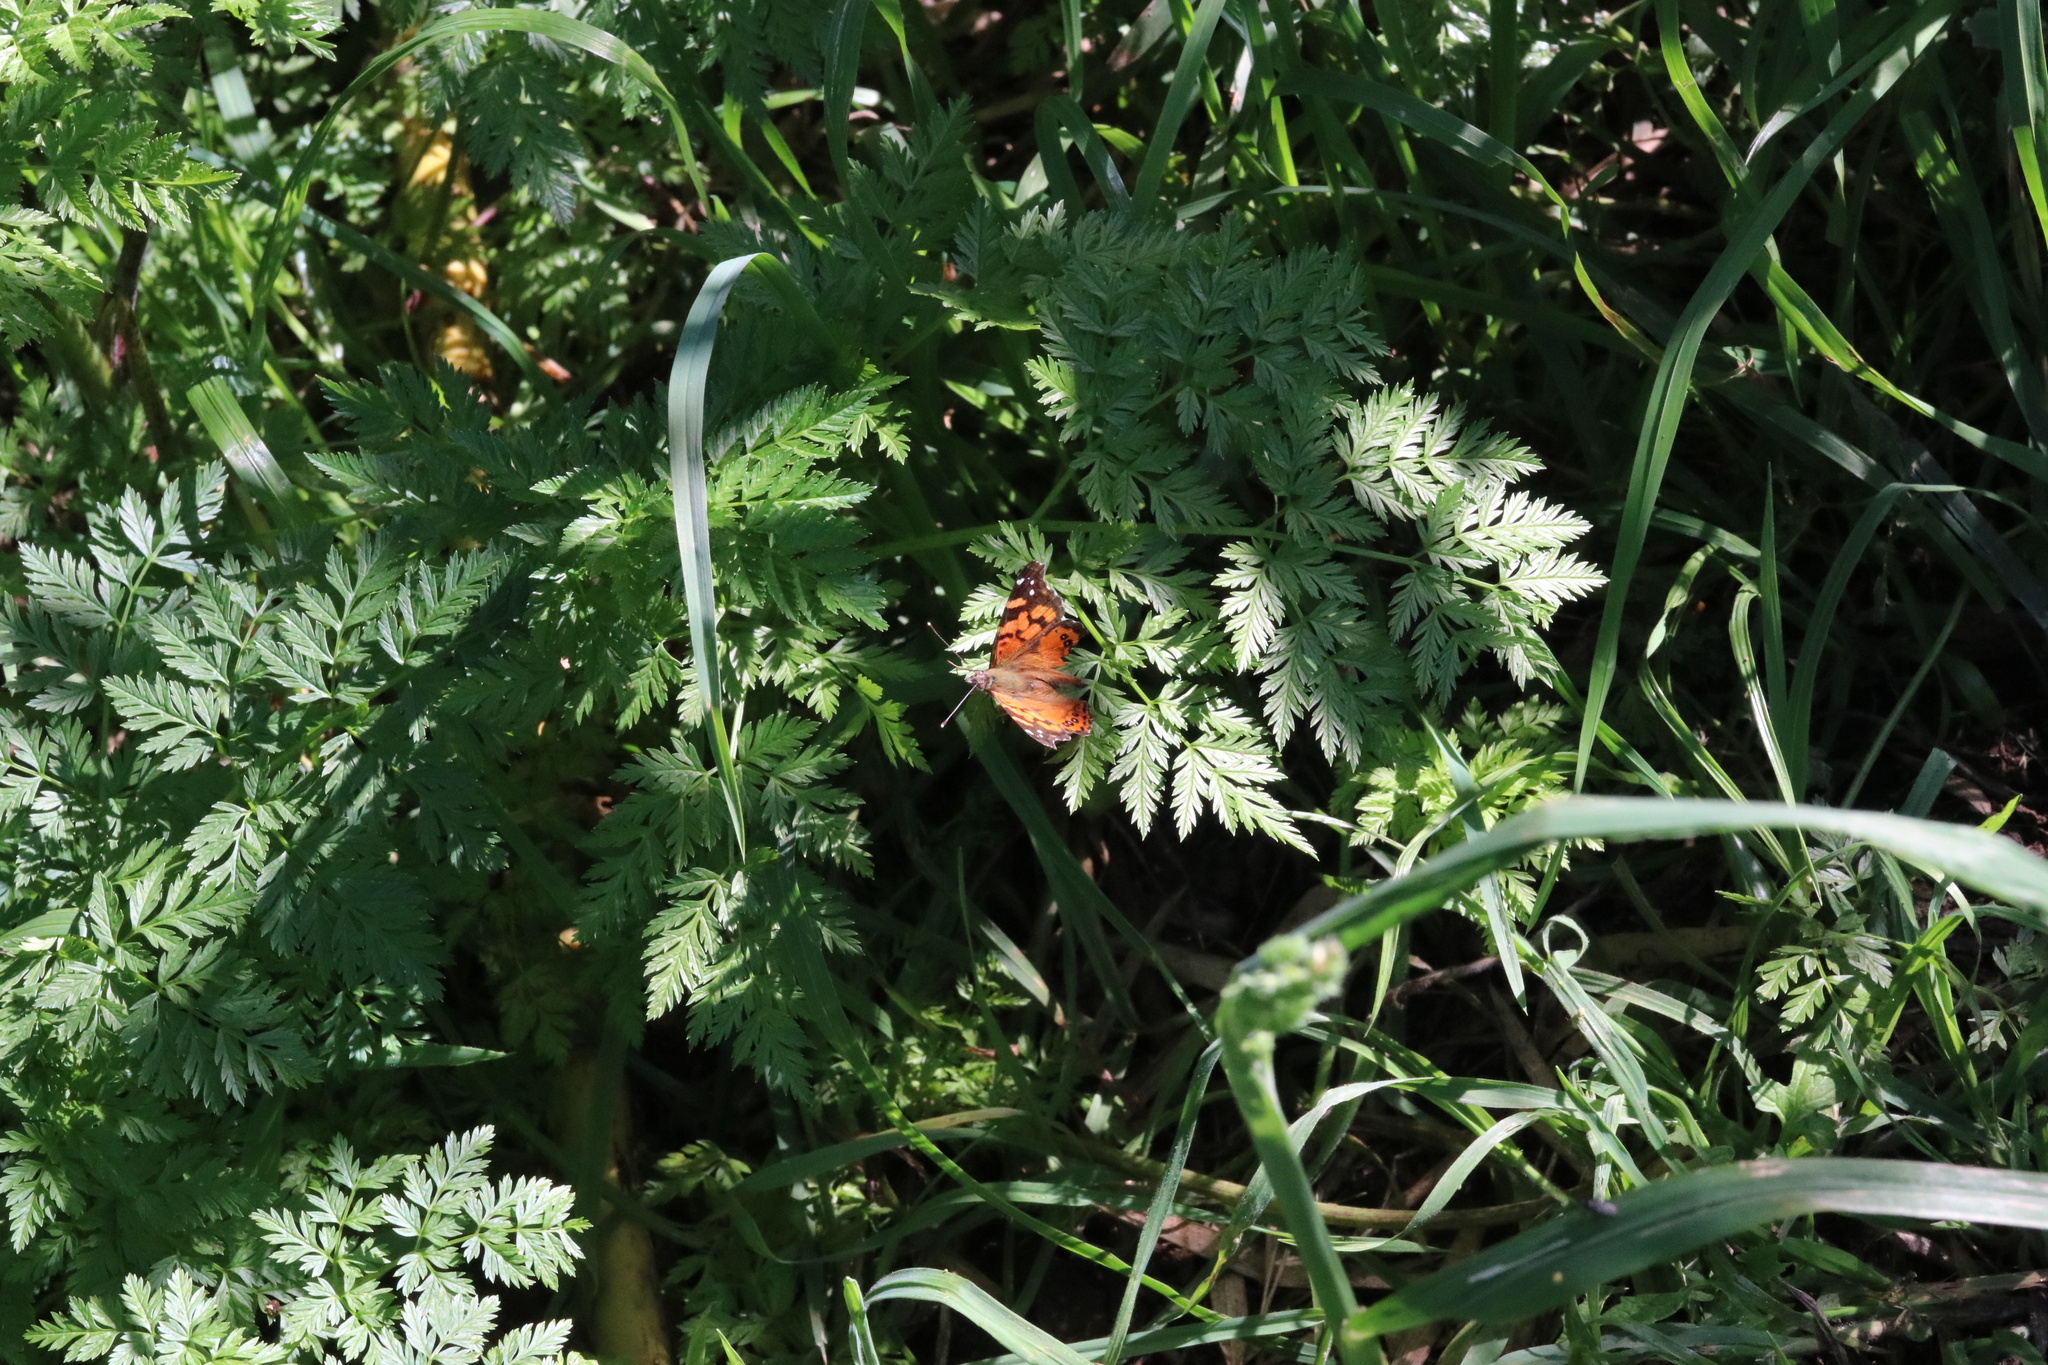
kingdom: Animalia
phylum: Arthropoda
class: Insecta
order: Lepidoptera
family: Nymphalidae
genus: Vanessa
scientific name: Vanessa carye
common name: Subtropical lady
